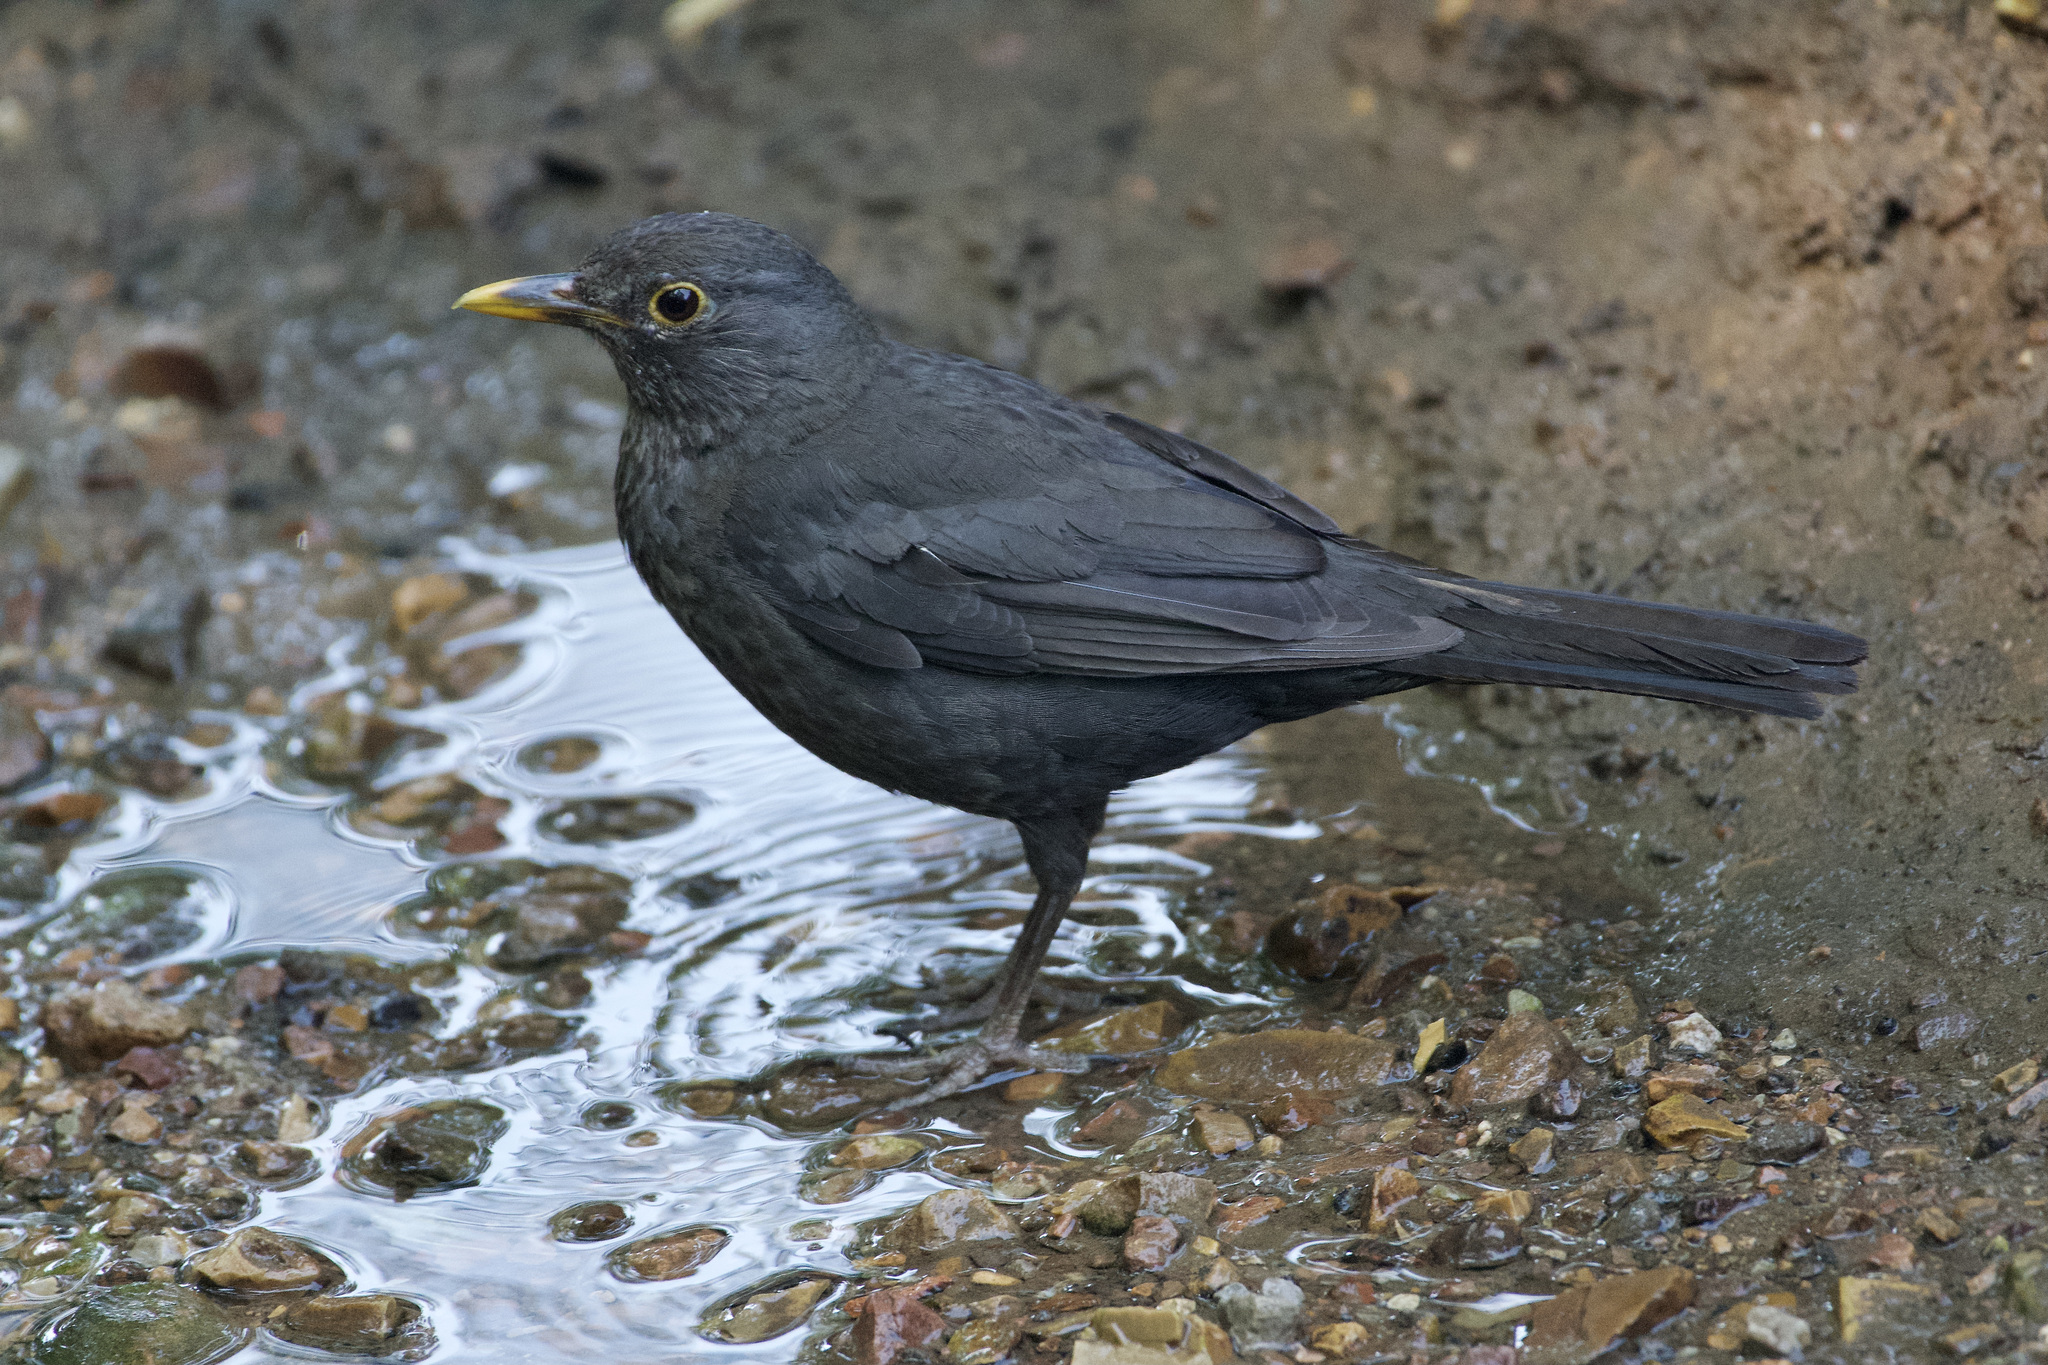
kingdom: Animalia
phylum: Chordata
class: Aves
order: Passeriformes
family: Turdidae
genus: Turdus
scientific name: Turdus merula
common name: Common blackbird
